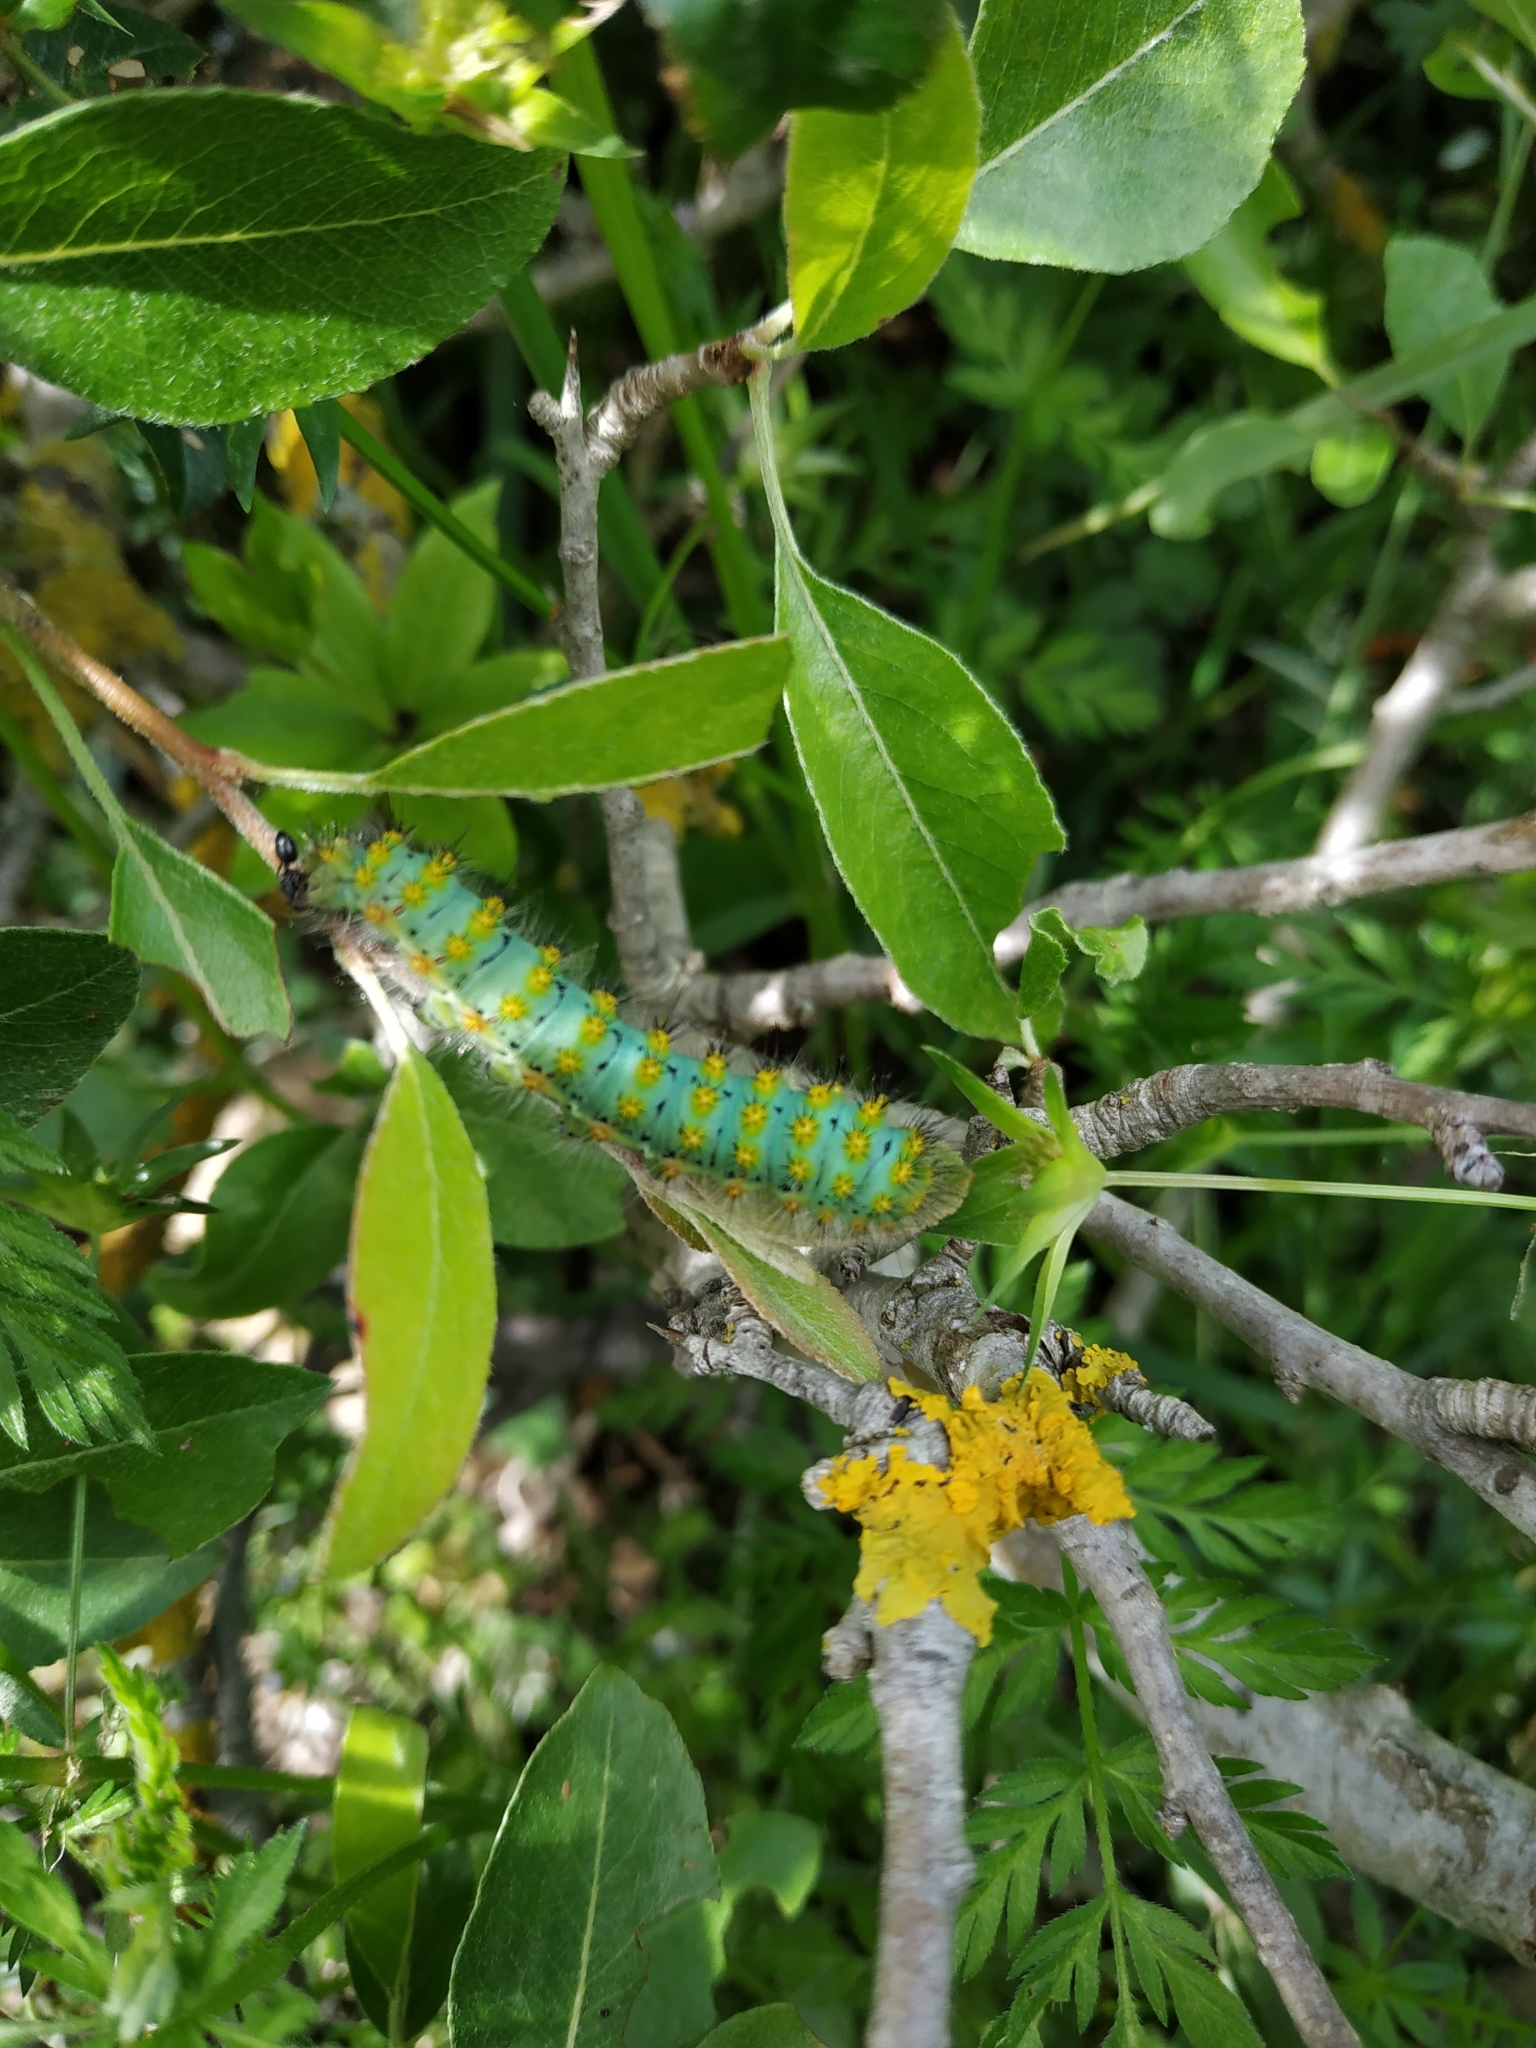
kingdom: Animalia
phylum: Arthropoda
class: Insecta
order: Lepidoptera
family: Saturniidae
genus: Saturnia
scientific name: Saturnia pavoniella
